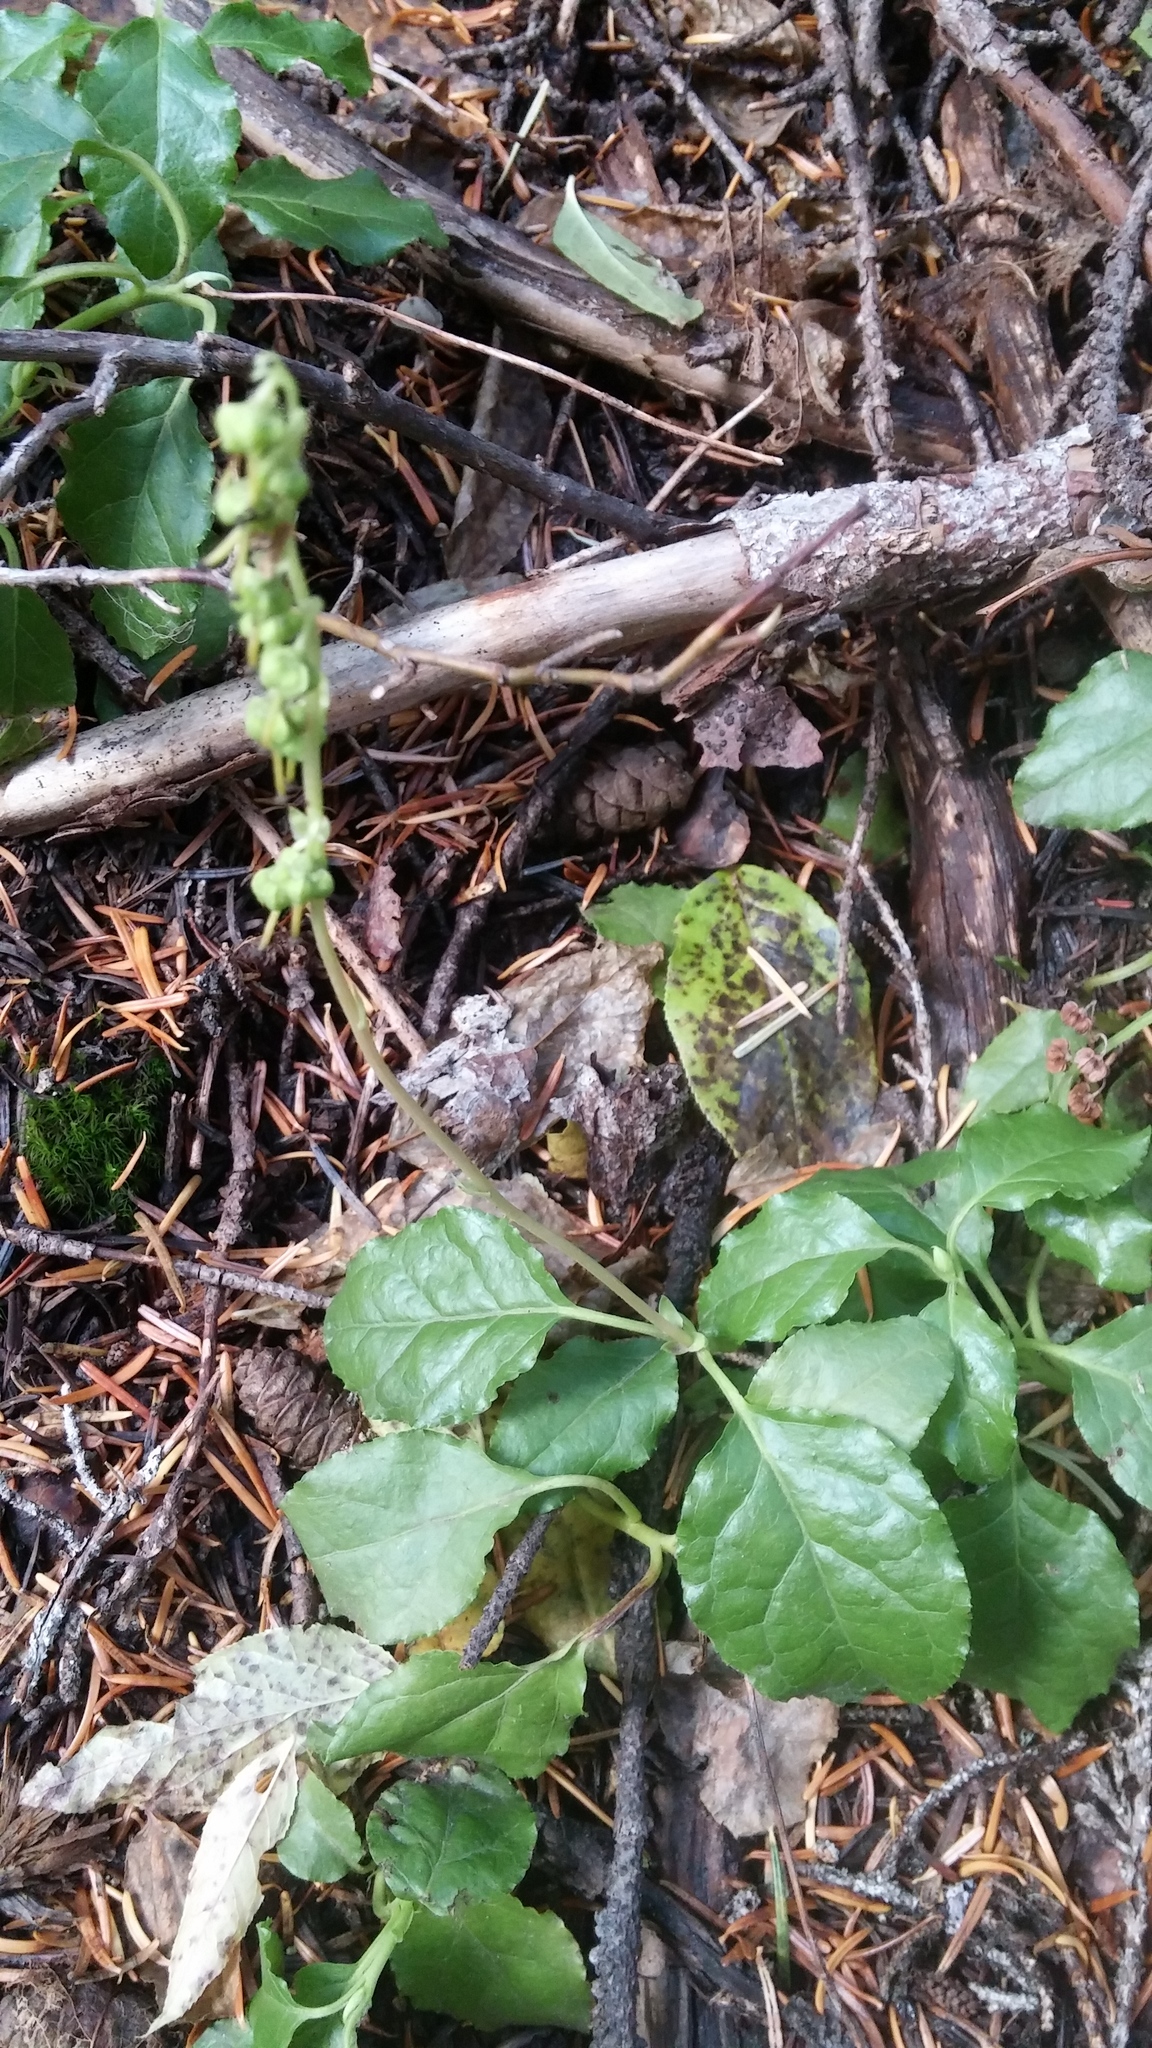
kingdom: Plantae
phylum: Tracheophyta
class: Magnoliopsida
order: Ericales
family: Ericaceae
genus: Orthilia
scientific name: Orthilia secunda
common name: One-sided orthilia
